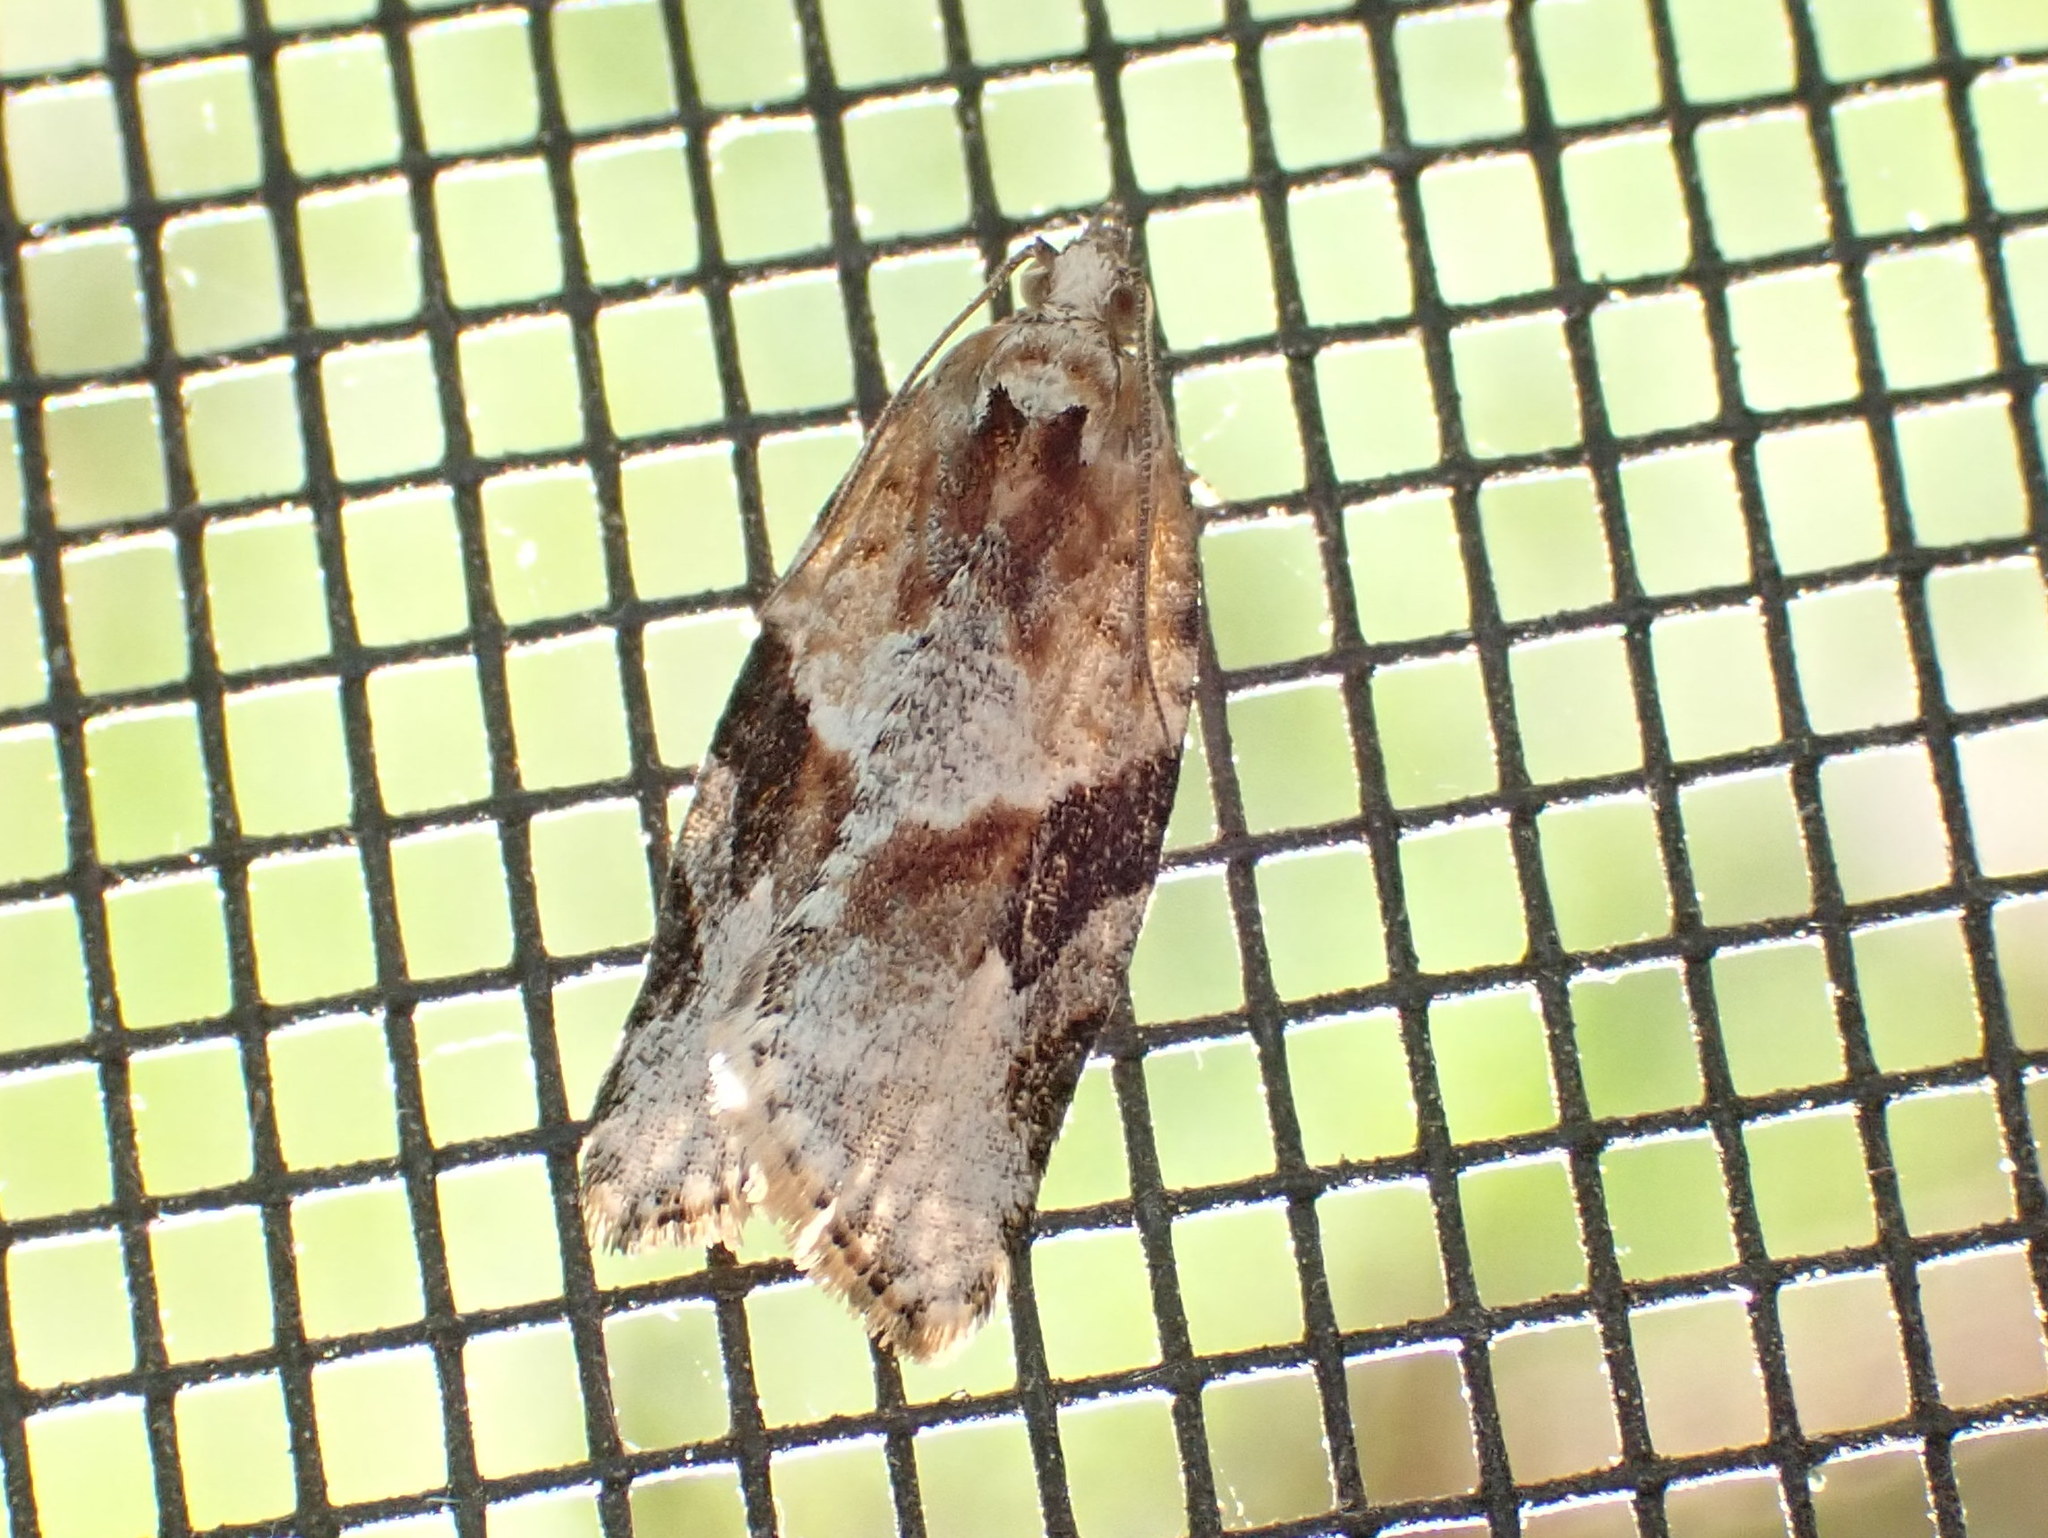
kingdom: Animalia
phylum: Arthropoda
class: Insecta
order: Lepidoptera
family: Tortricidae
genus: Argyrotaenia
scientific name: Argyrotaenia mariana
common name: Gray-banded leafroller moth
